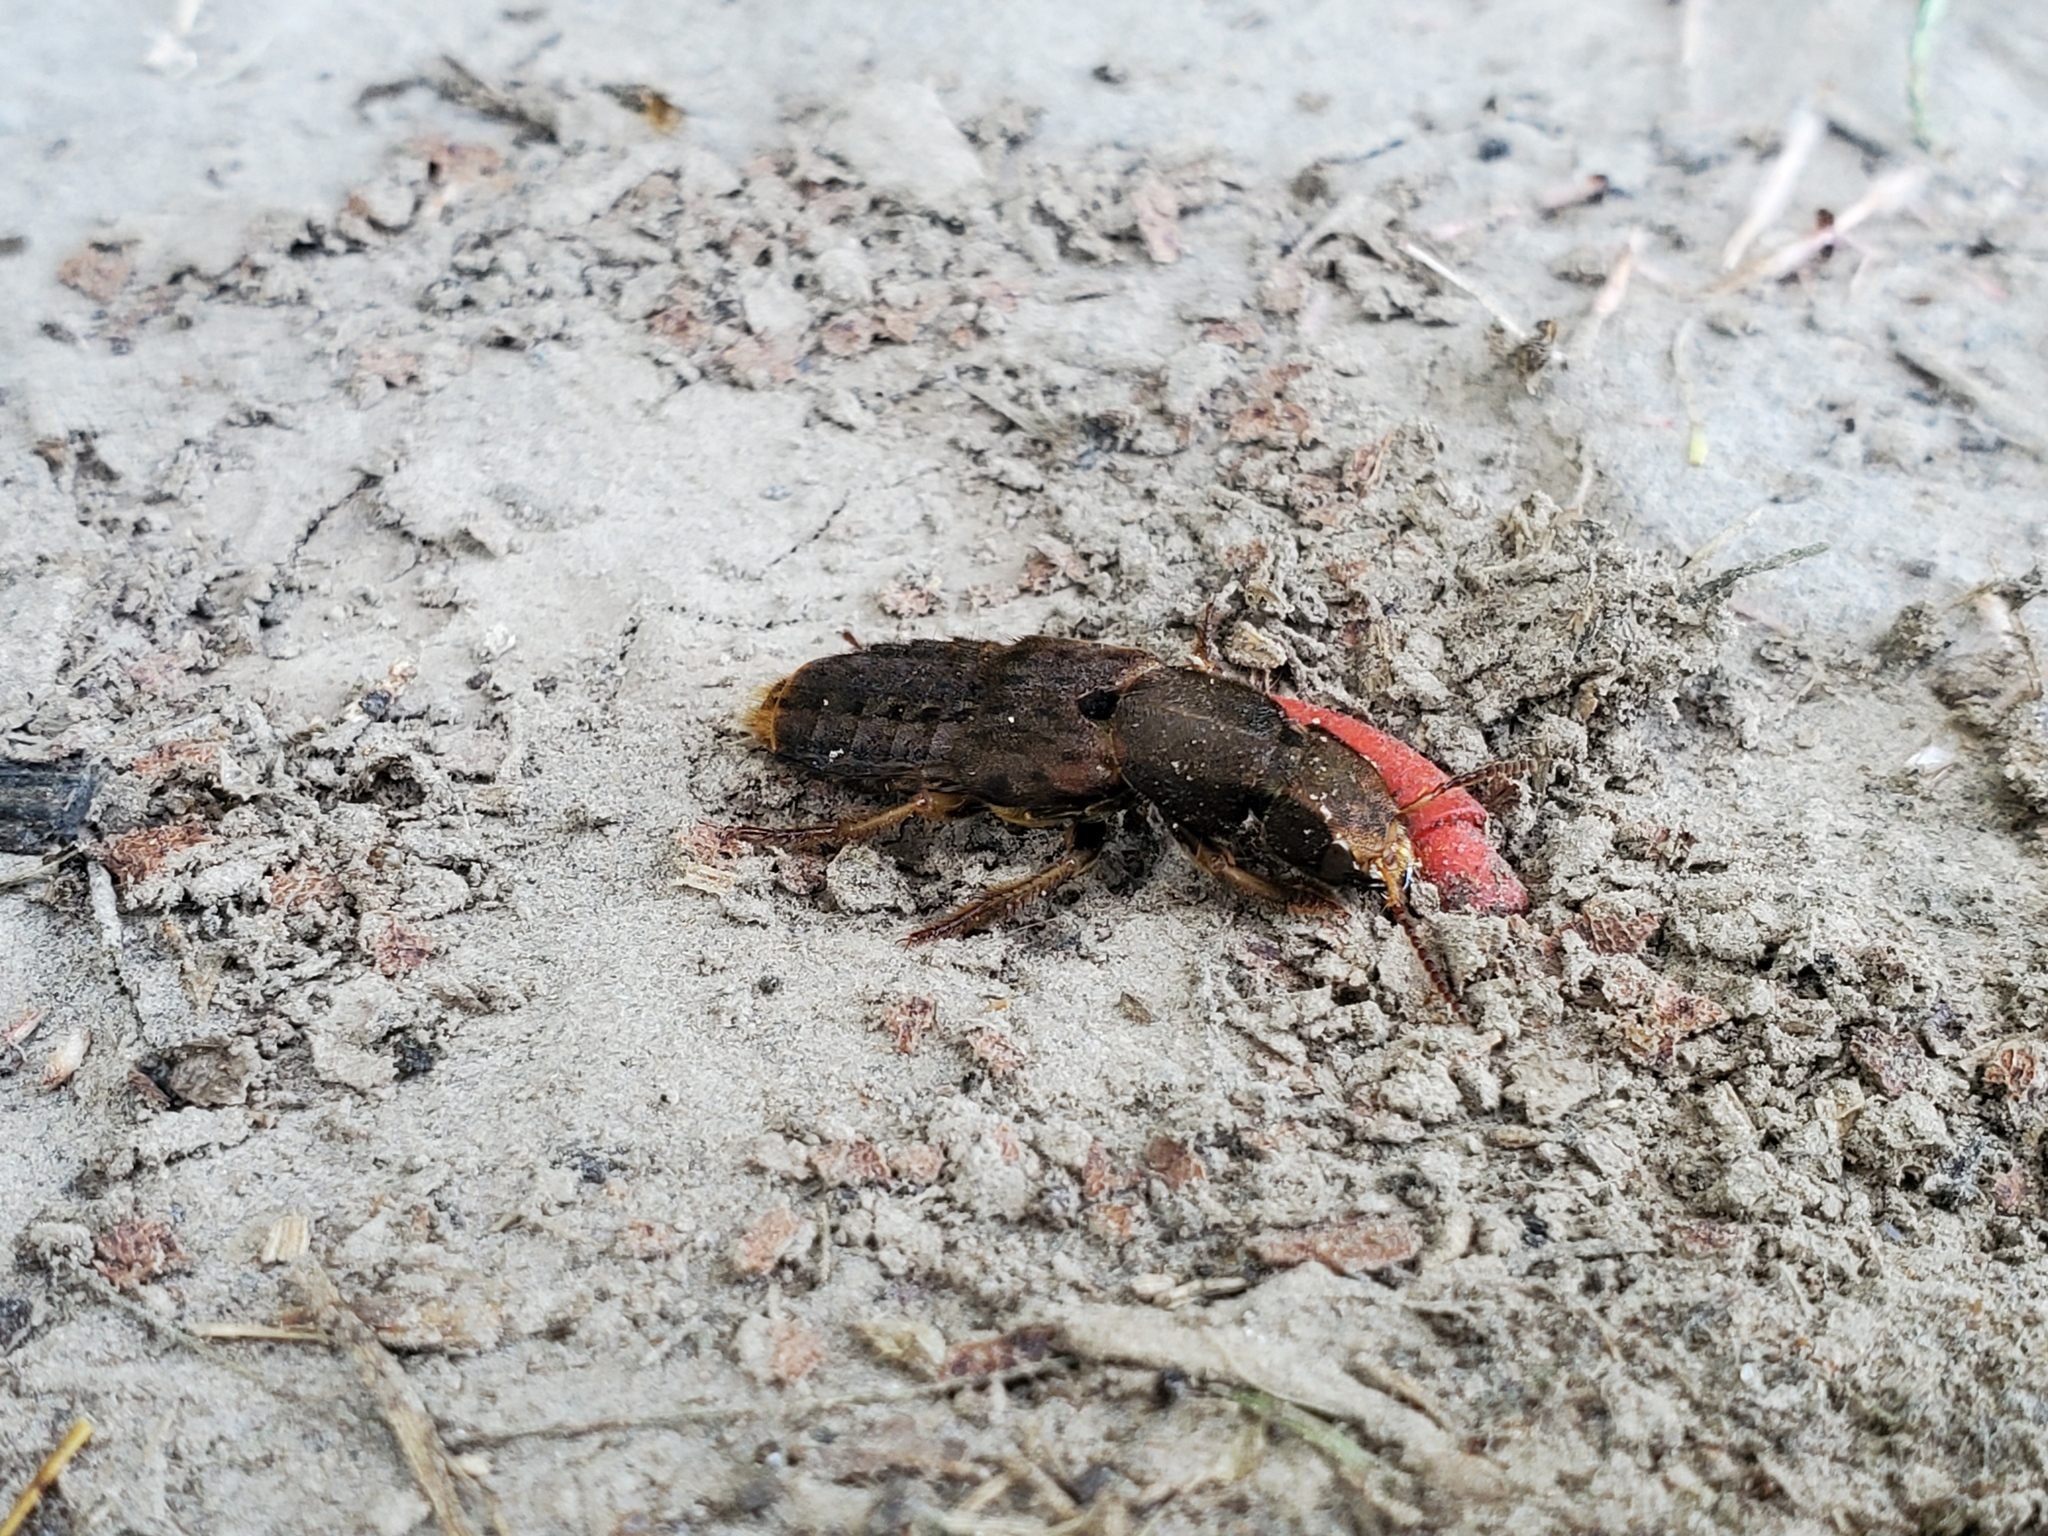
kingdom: Animalia
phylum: Arthropoda
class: Insecta
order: Coleoptera
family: Staphylinidae
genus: Platydracus
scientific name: Platydracus maculosus
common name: Brown rove beetle
